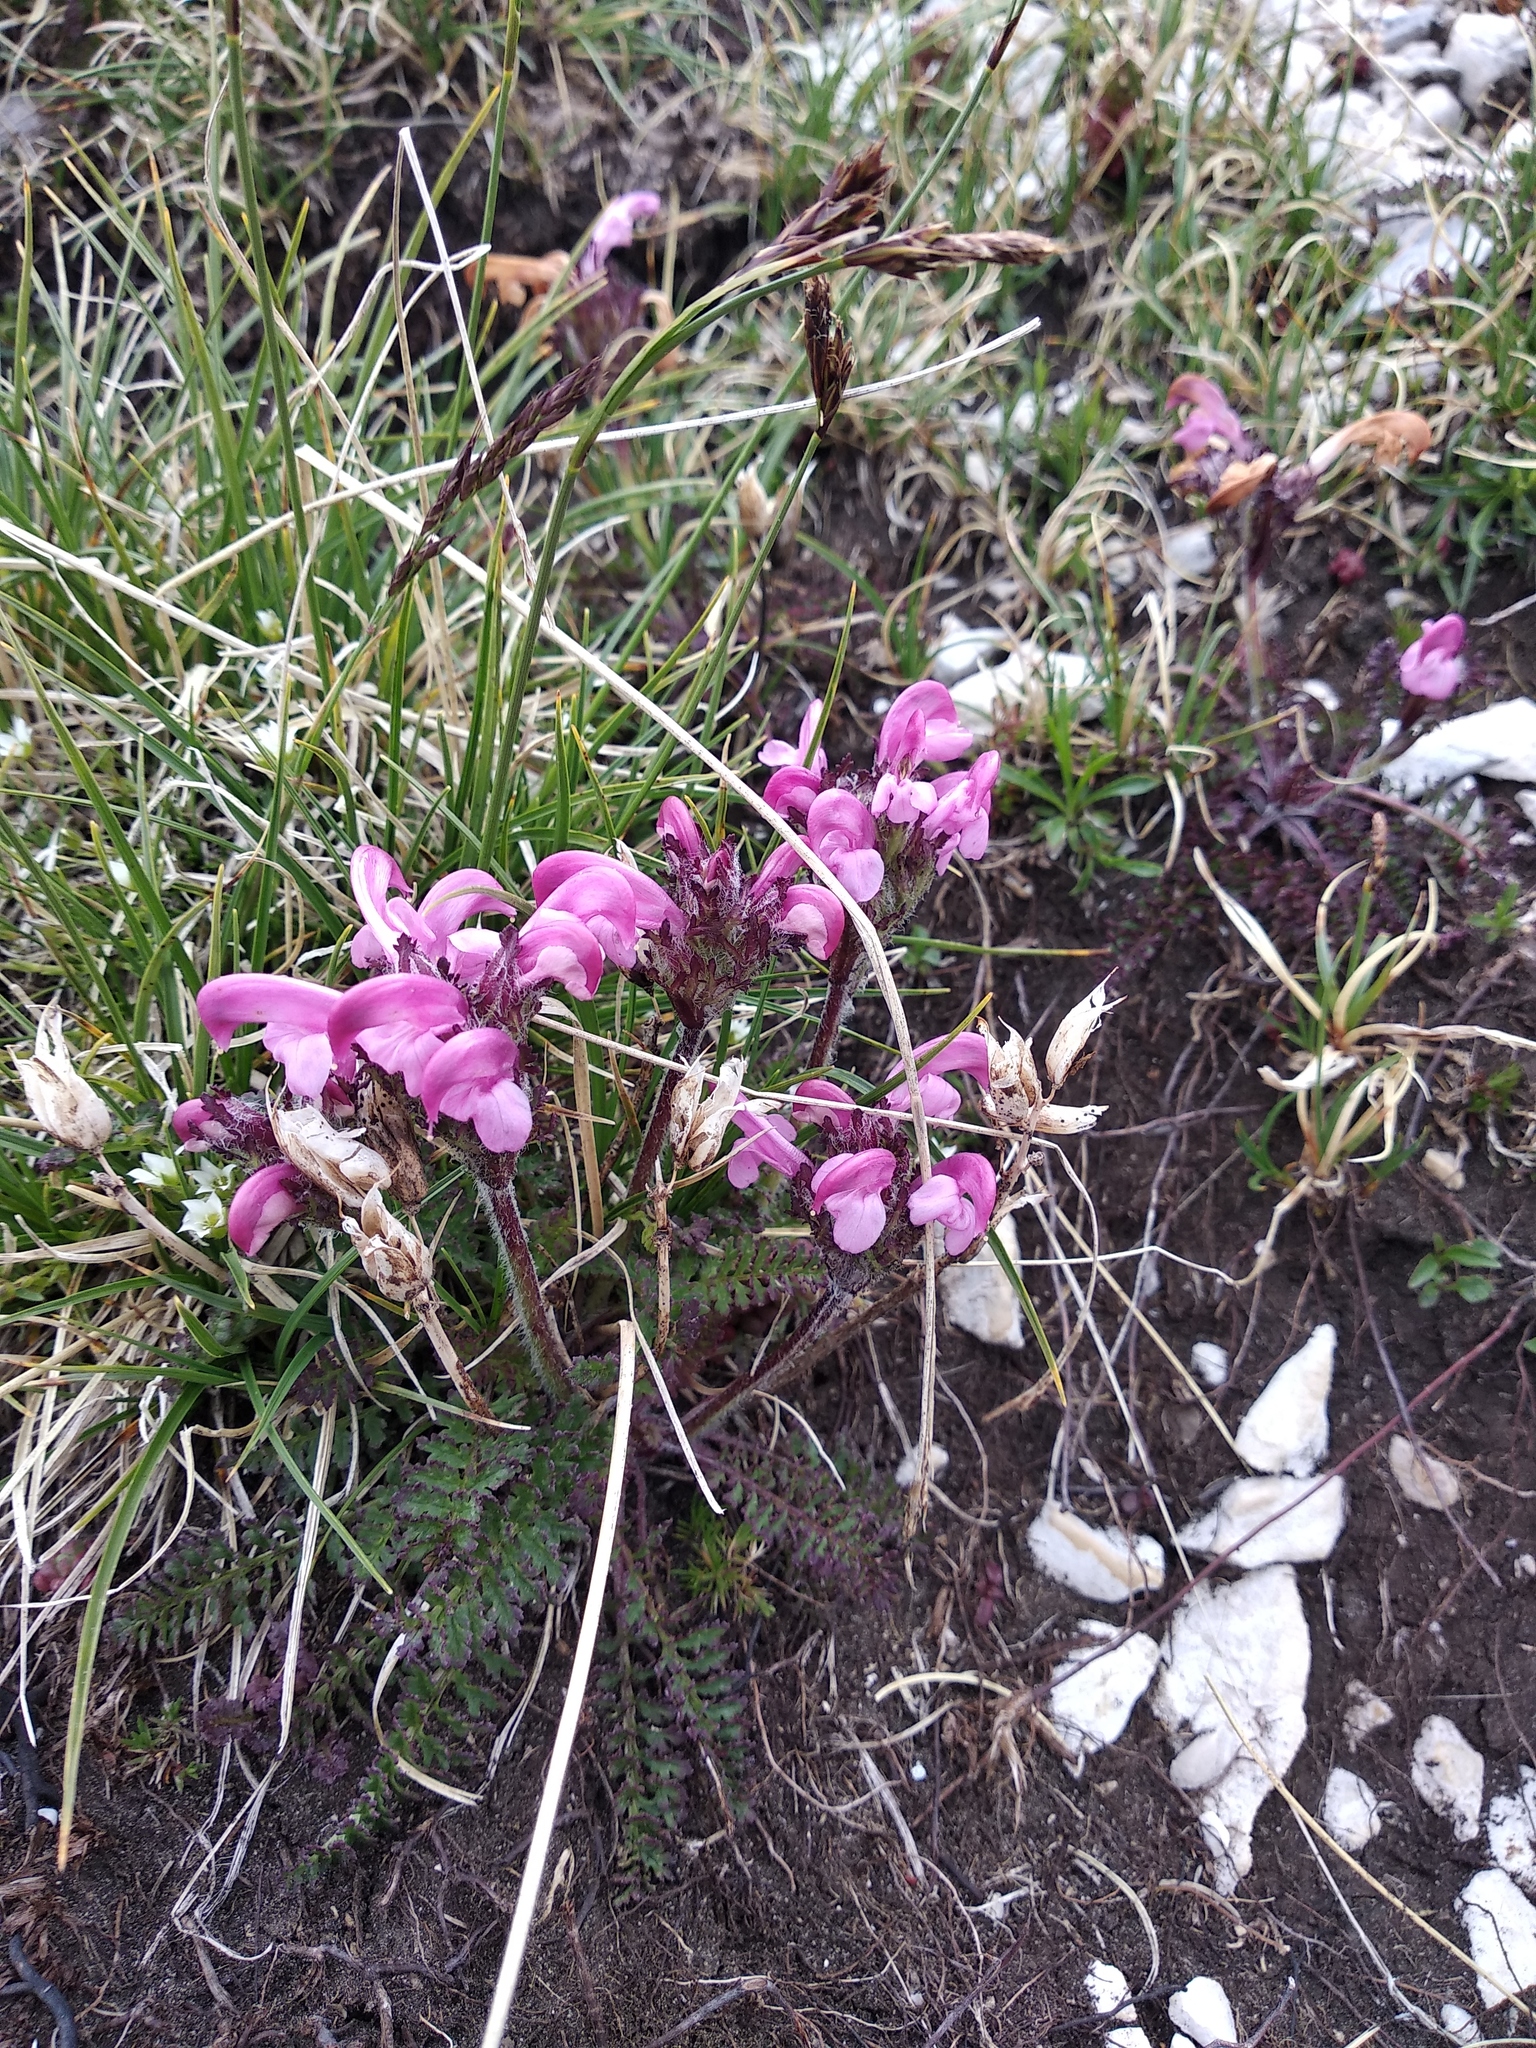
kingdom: Plantae
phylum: Tracheophyta
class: Magnoliopsida
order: Lamiales
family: Orobanchaceae
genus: Pedicularis
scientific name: Pedicularis elegans
